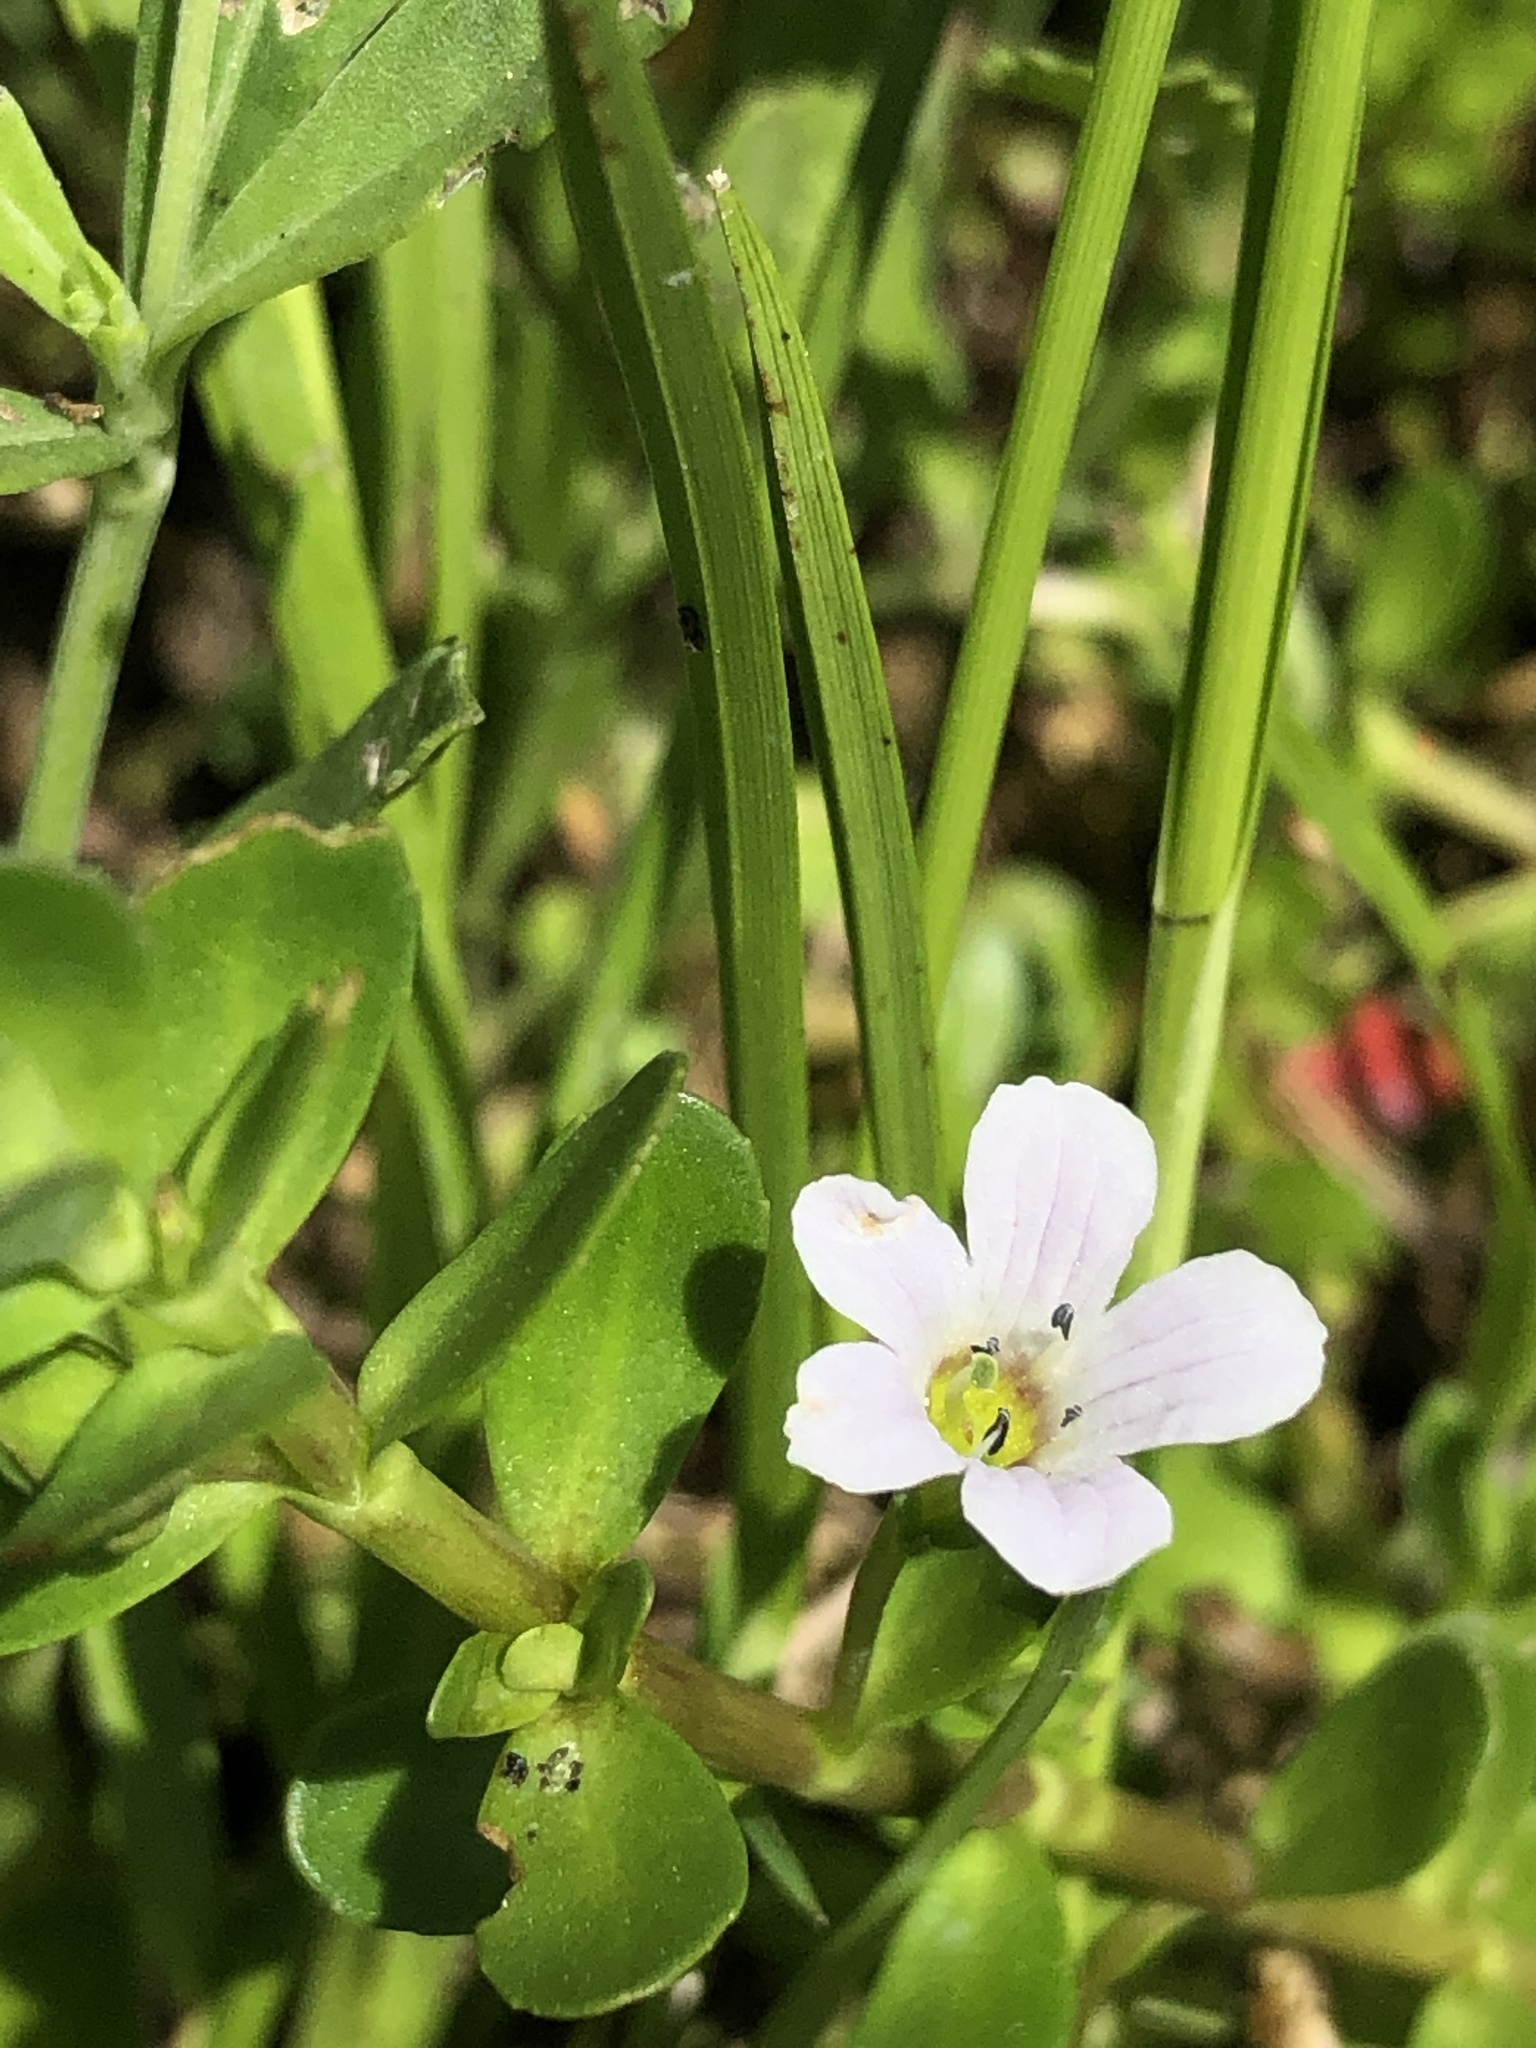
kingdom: Plantae
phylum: Tracheophyta
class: Magnoliopsida
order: Lamiales
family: Plantaginaceae
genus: Bacopa
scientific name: Bacopa monnieri
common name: Indian-pennywort
